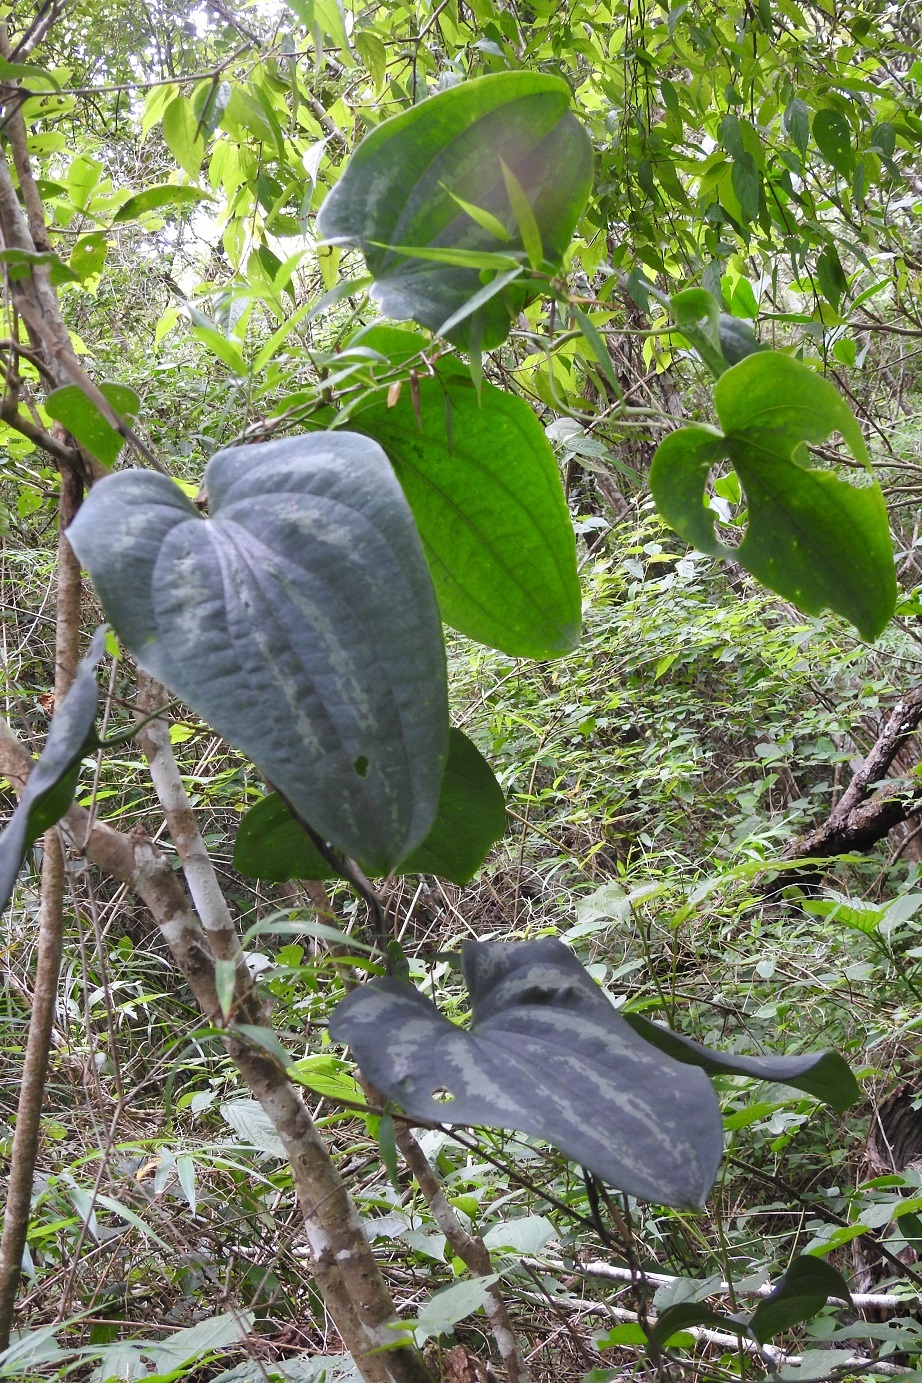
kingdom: Plantae
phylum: Tracheophyta
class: Liliopsida
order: Dioscoreales
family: Dioscoreaceae
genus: Dioscorea
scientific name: Dioscorea cyanisticta
